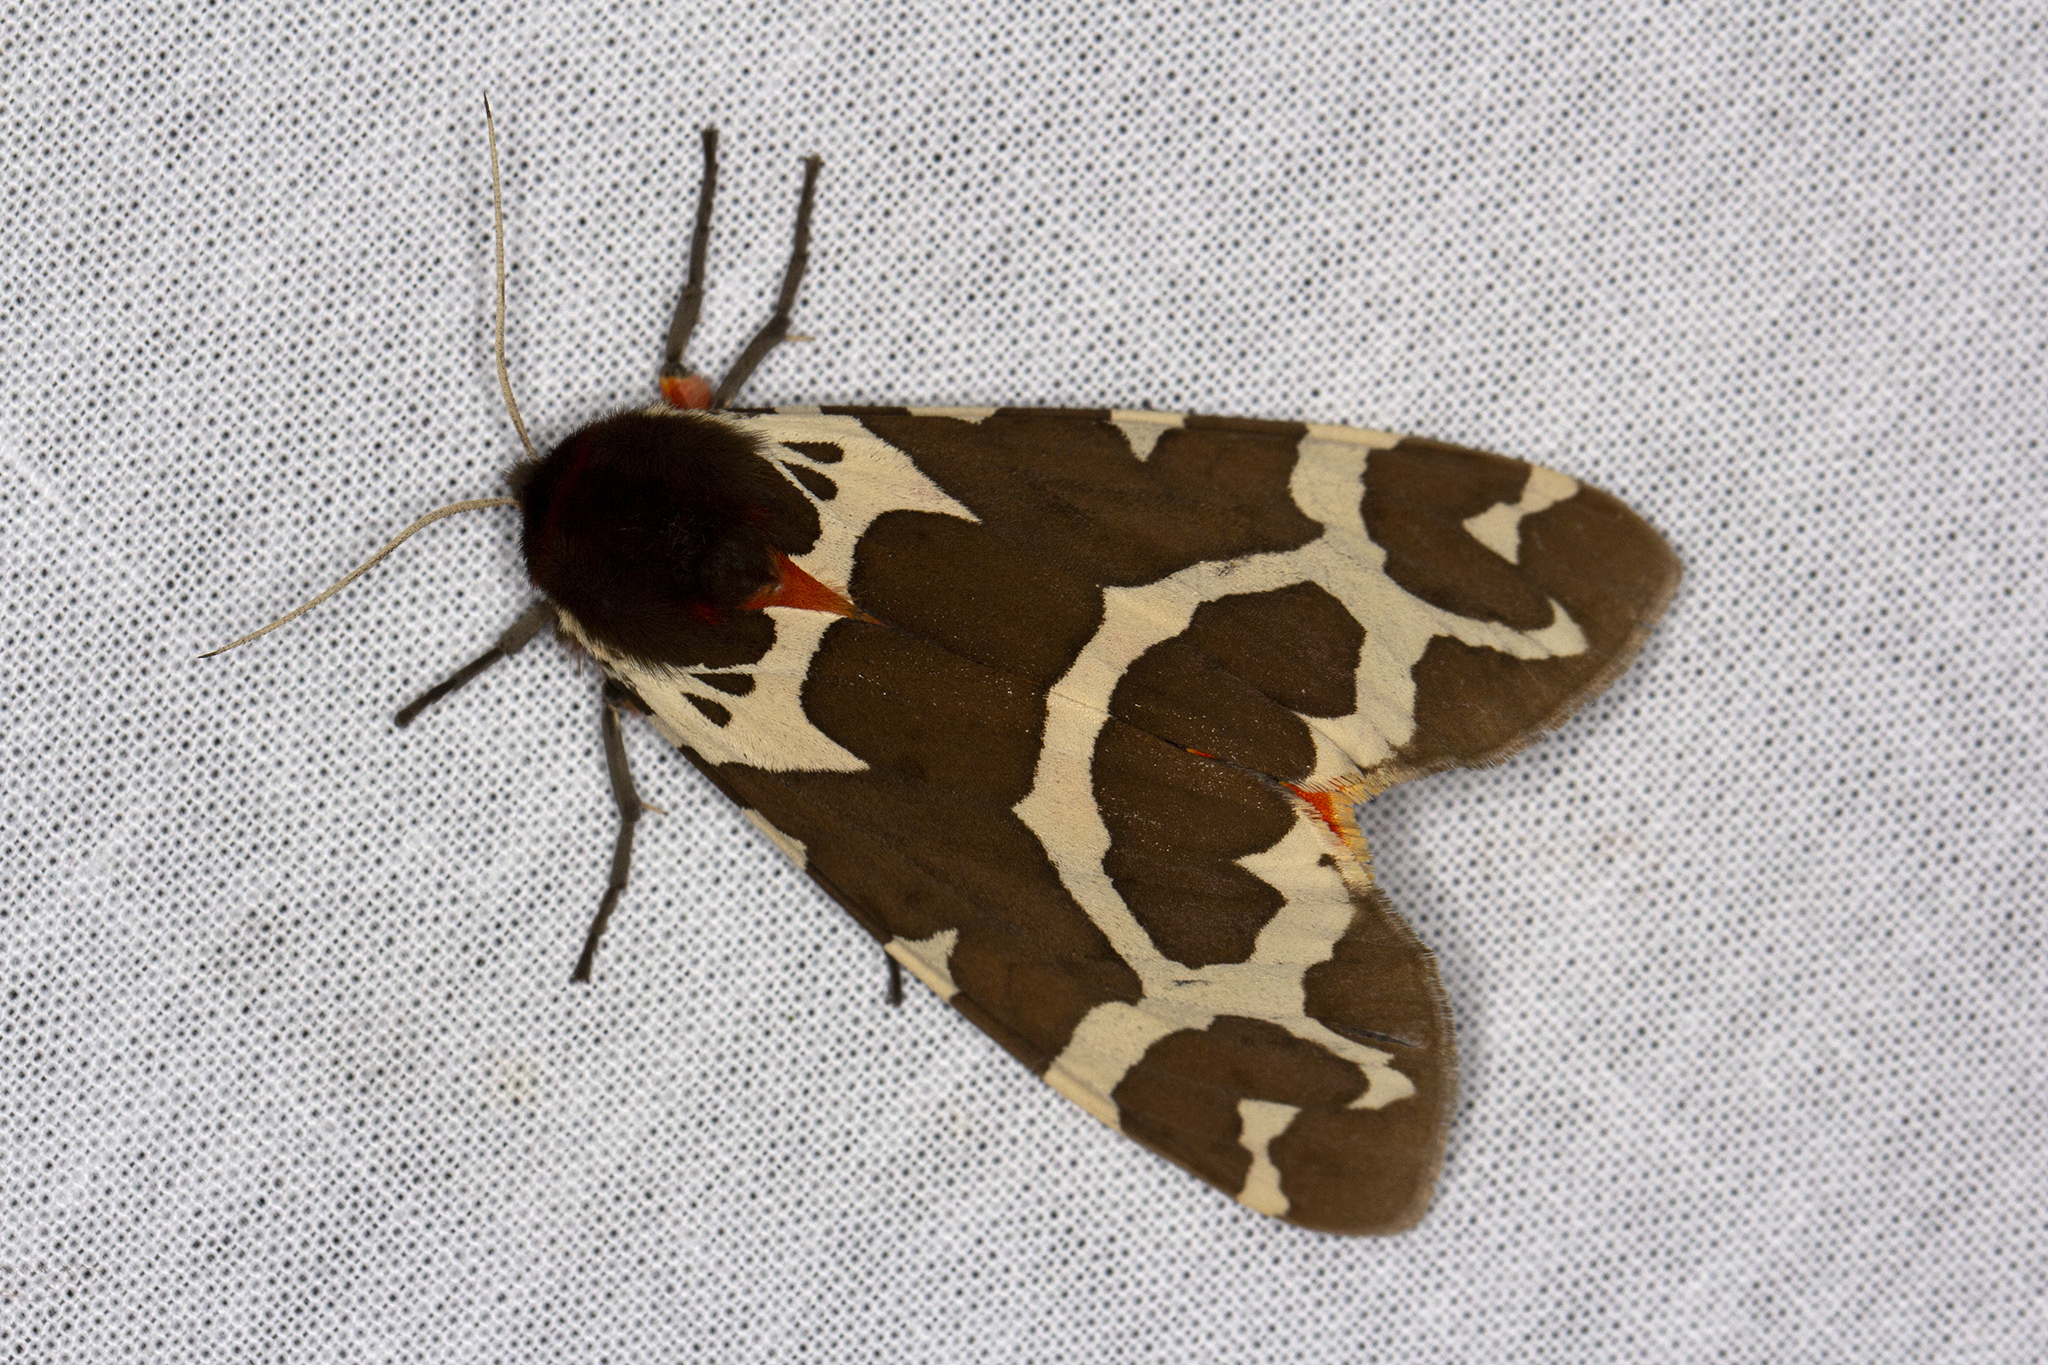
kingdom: Animalia
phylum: Arthropoda
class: Insecta
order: Lepidoptera
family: Erebidae
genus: Arctia
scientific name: Arctia caja
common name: Garden tiger
